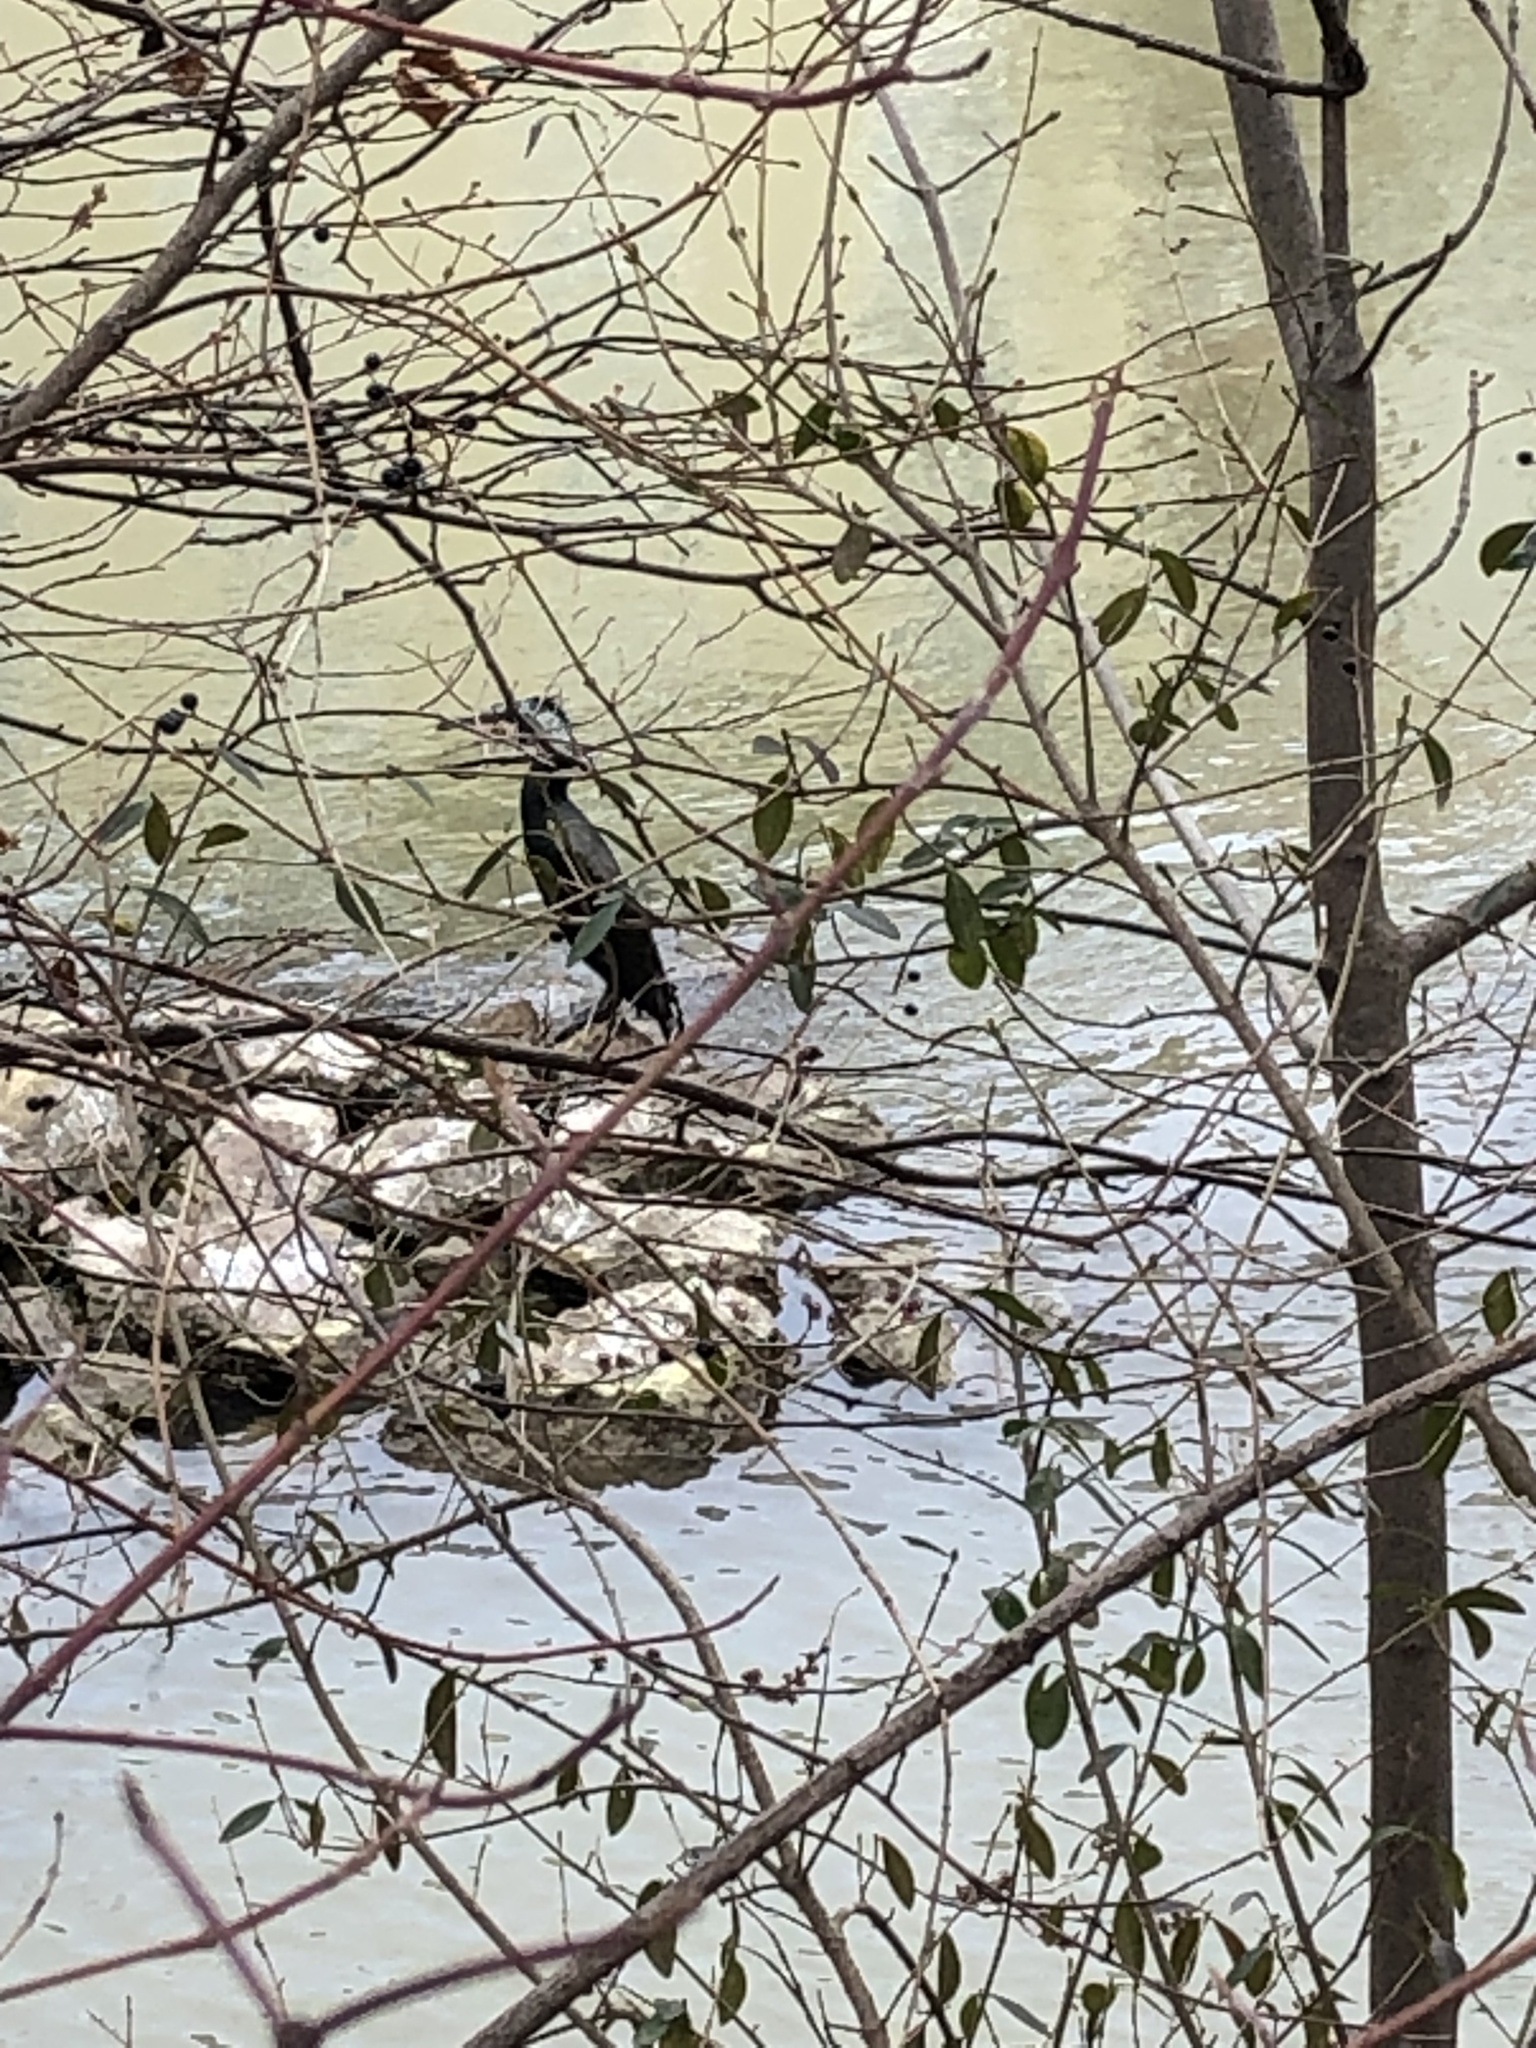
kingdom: Animalia
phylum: Chordata
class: Aves
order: Suliformes
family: Phalacrocoracidae
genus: Phalacrocorax
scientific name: Phalacrocorax carbo
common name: Great cormorant
